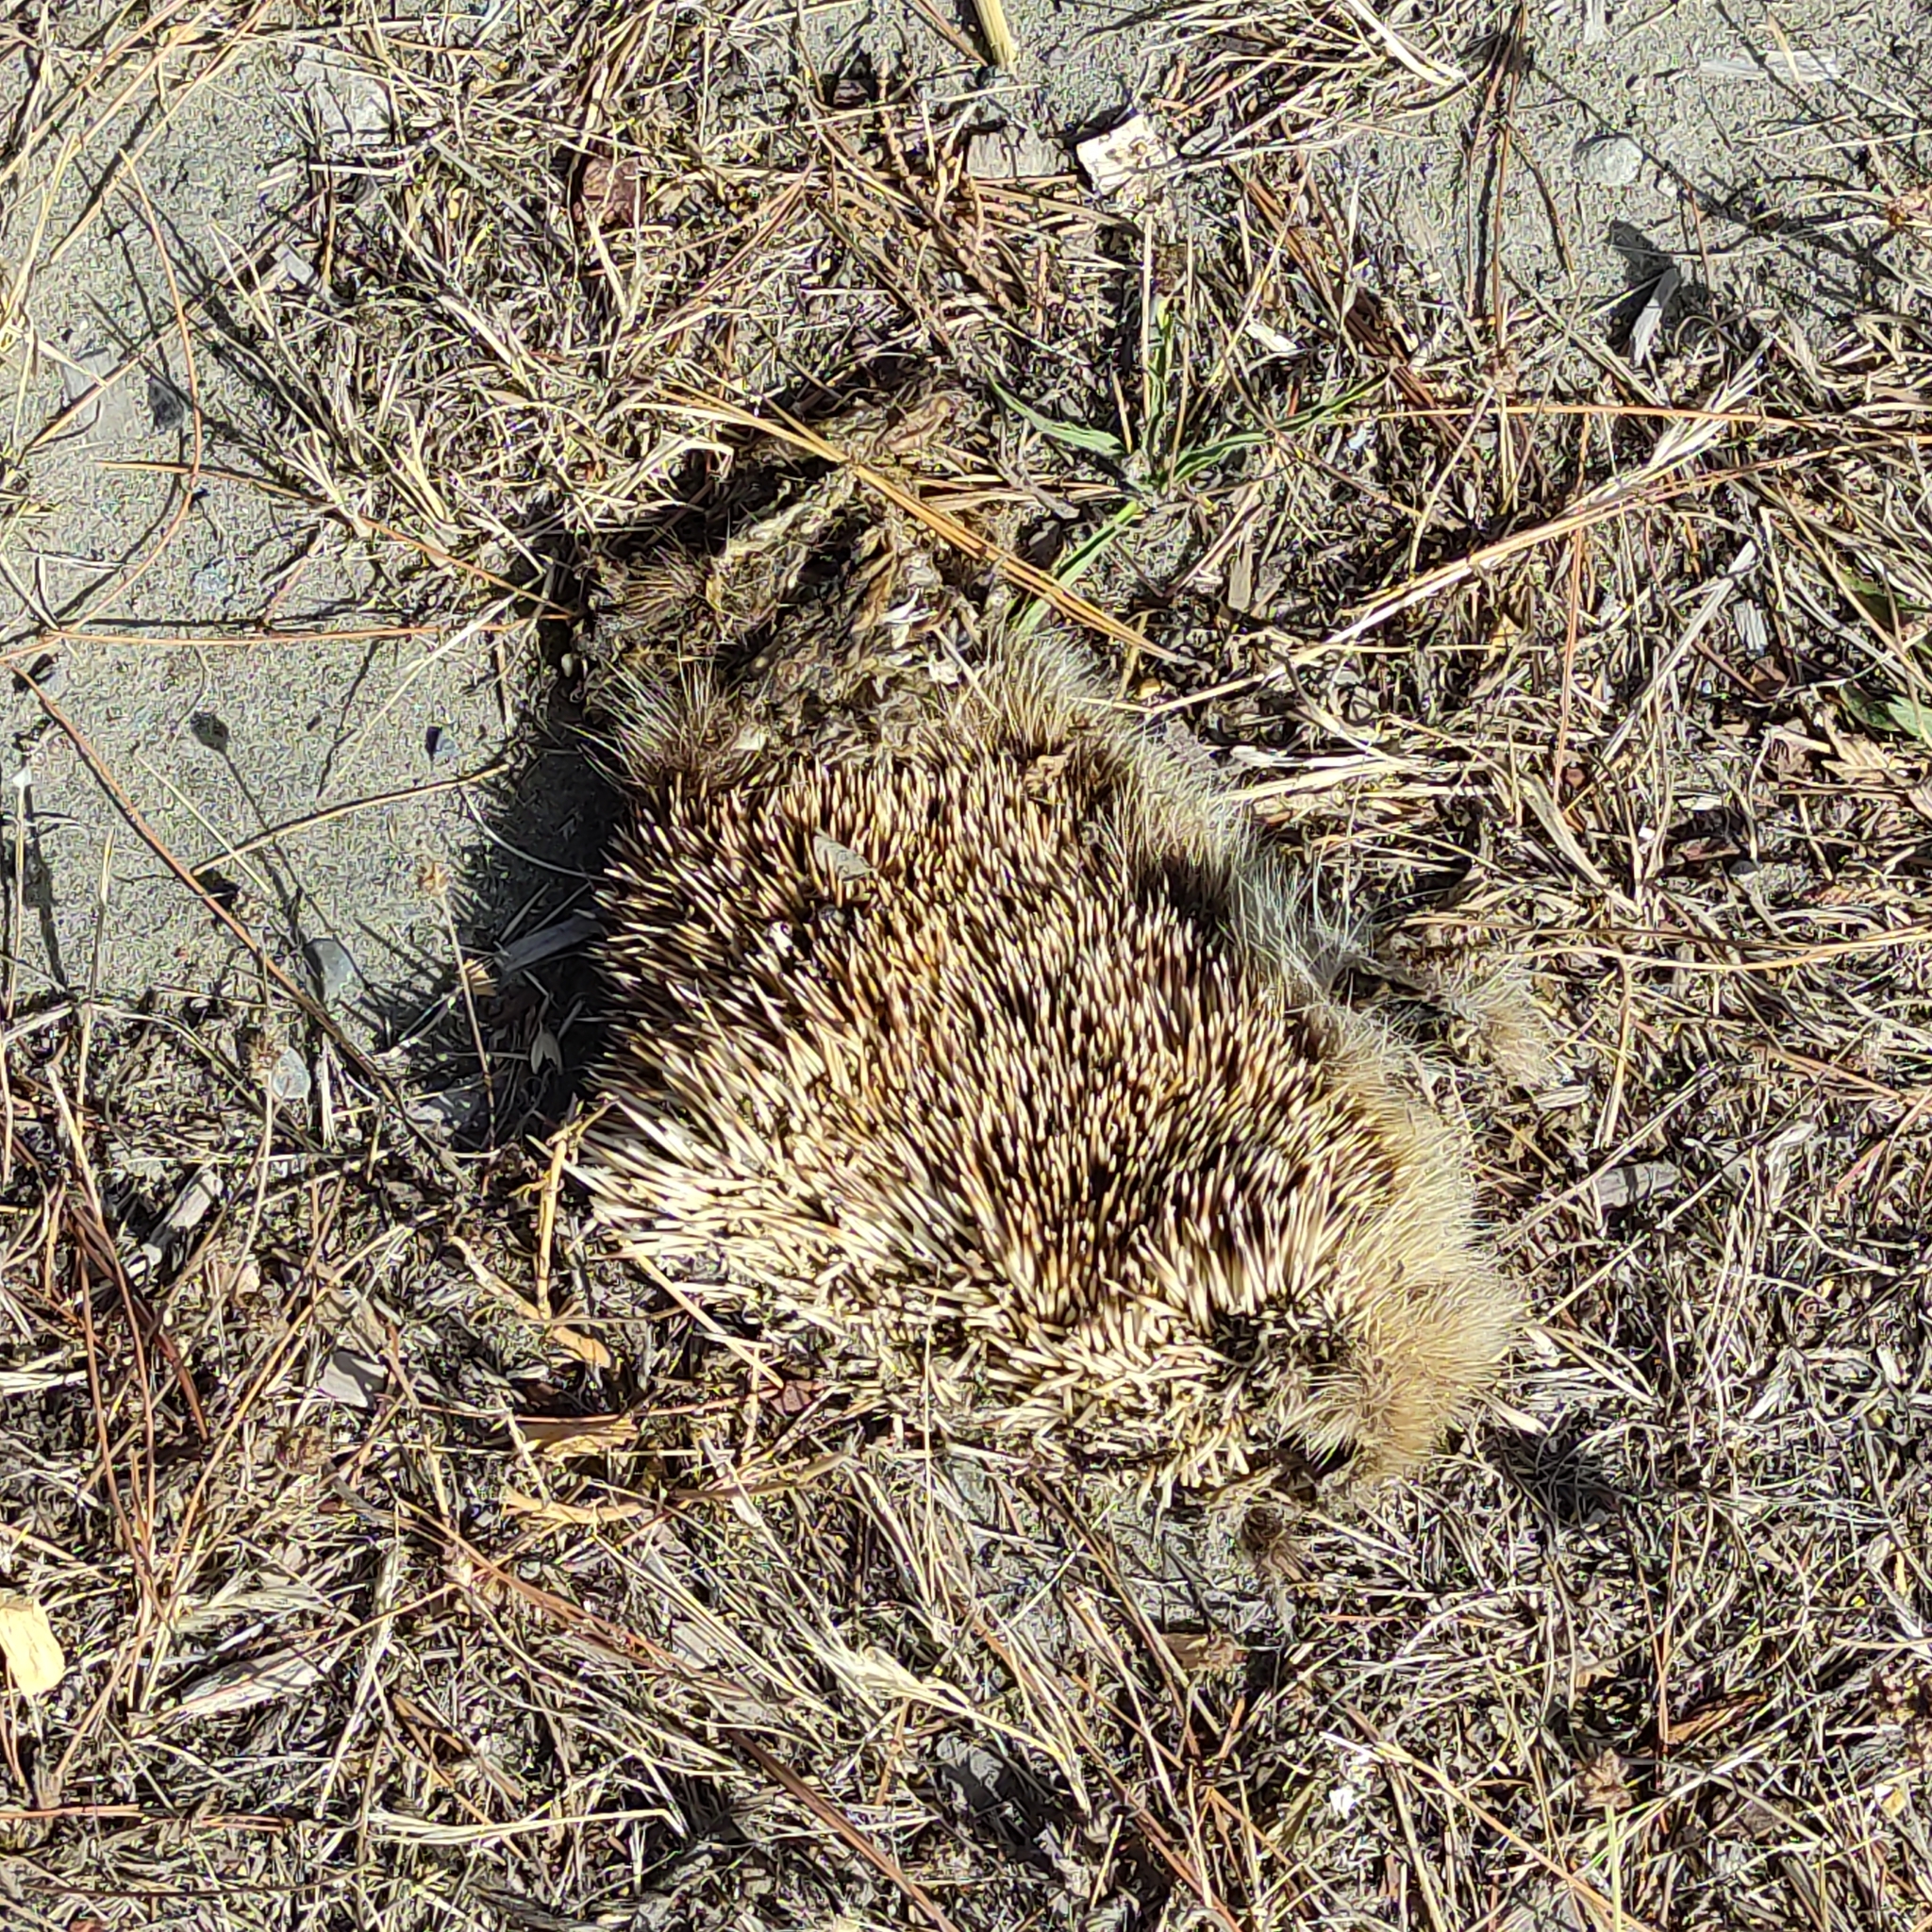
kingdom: Animalia
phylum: Chordata
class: Mammalia
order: Erinaceomorpha
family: Erinaceidae
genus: Erinaceus
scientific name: Erinaceus europaeus
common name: West european hedgehog
